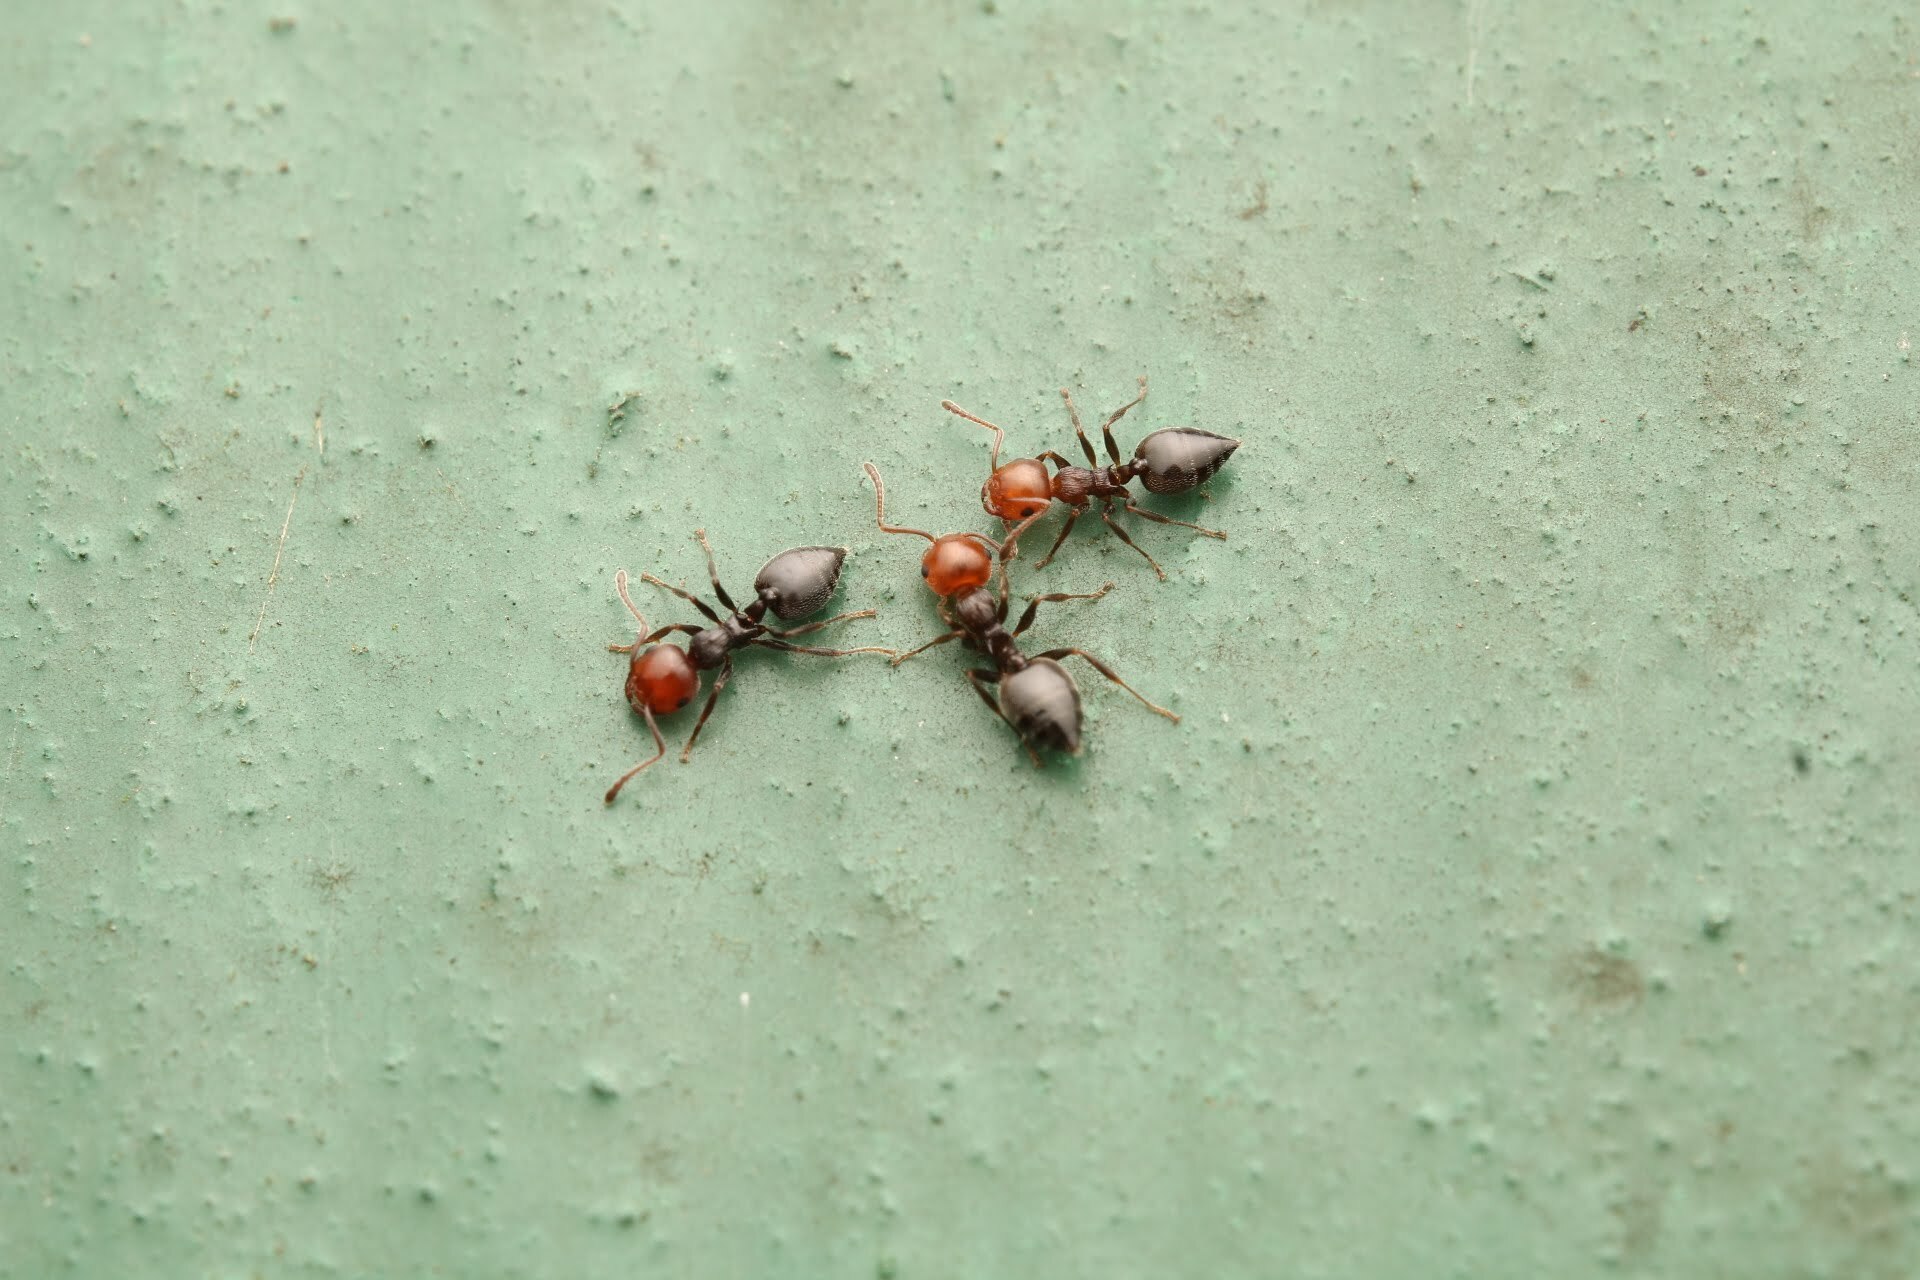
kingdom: Animalia
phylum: Arthropoda
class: Insecta
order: Hymenoptera
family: Formicidae
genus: Crematogaster
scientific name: Crematogaster scutellaris
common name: Fourmi du liège
